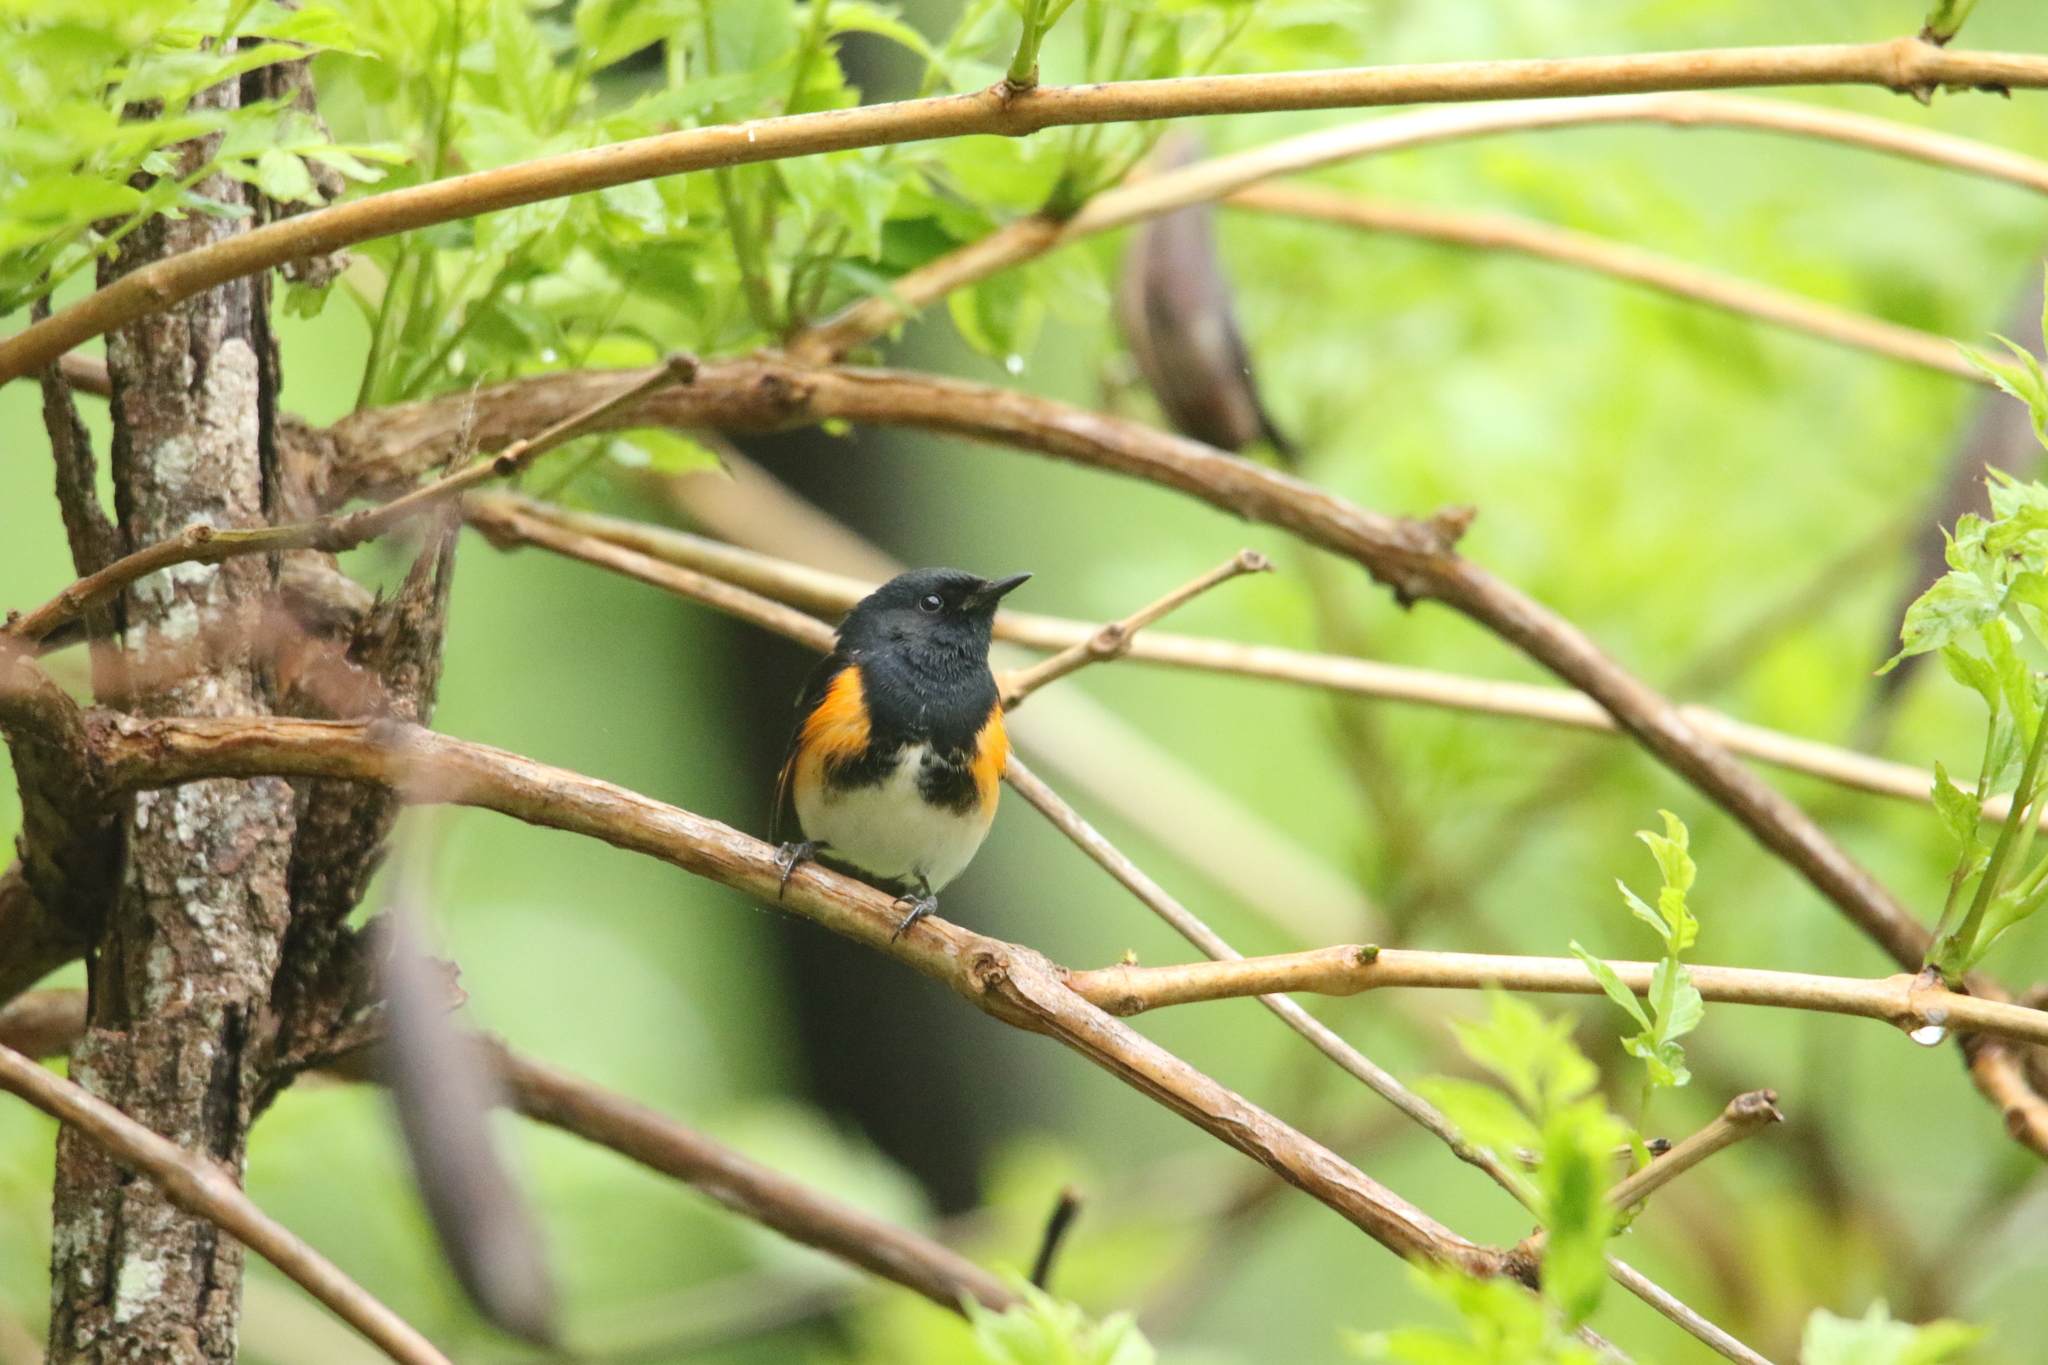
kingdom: Animalia
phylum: Chordata
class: Aves
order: Passeriformes
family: Parulidae
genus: Setophaga
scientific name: Setophaga ruticilla
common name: American redstart
